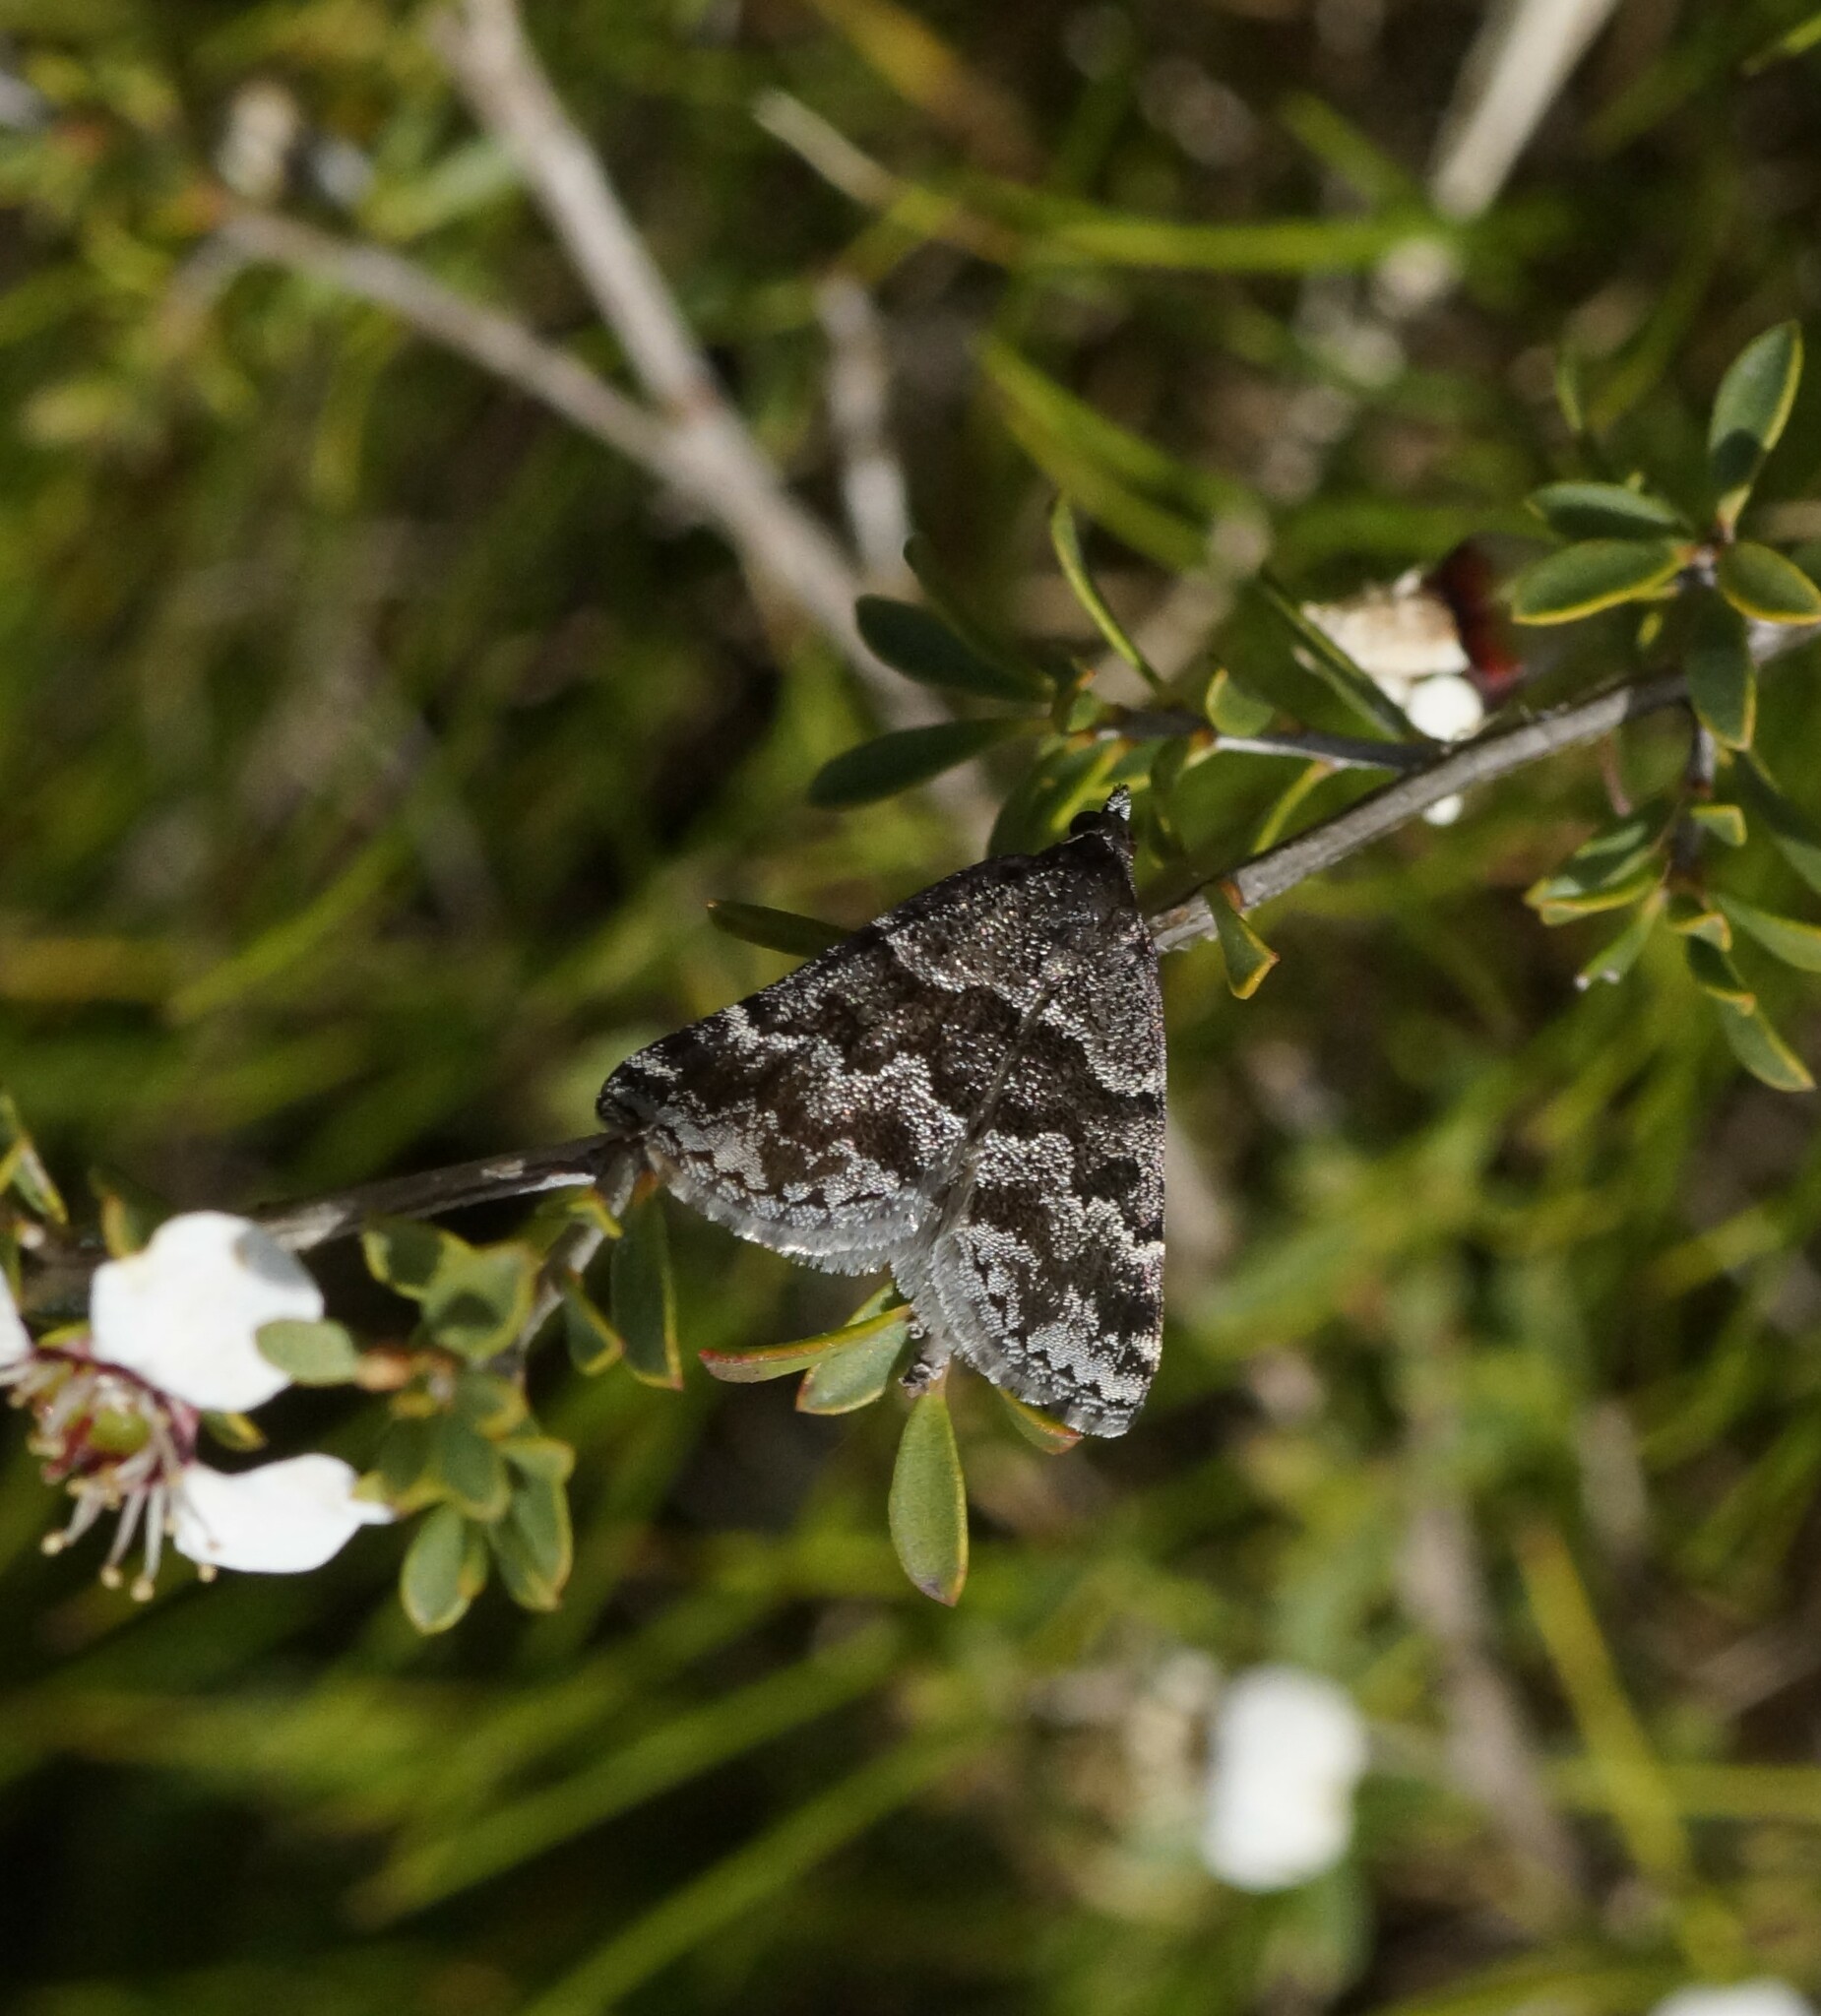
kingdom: Animalia
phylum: Arthropoda
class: Insecta
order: Lepidoptera
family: Geometridae
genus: Dichromodes
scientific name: Dichromodes ainaria
